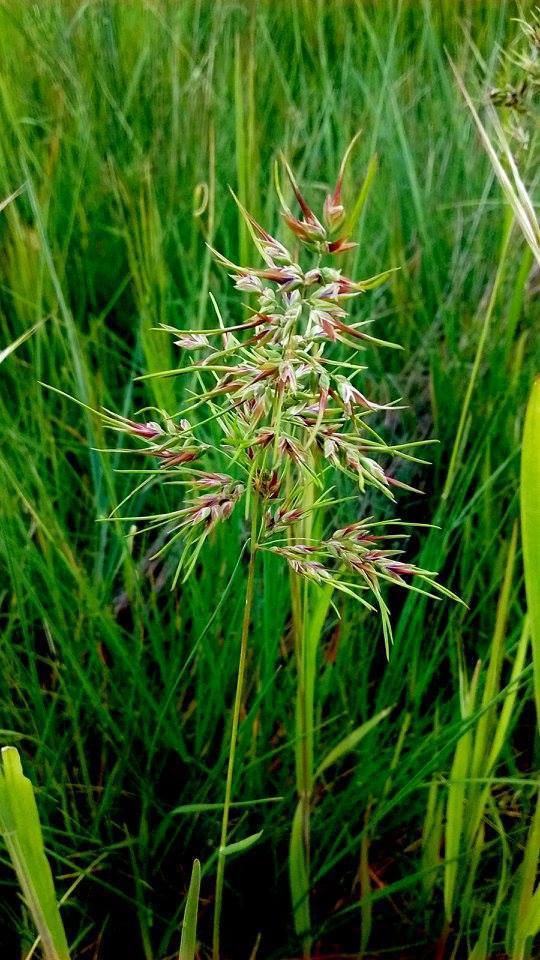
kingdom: Plantae
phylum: Tracheophyta
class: Liliopsida
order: Poales
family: Poaceae
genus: Poa
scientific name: Poa bulbosa
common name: Bulbous bluegrass
